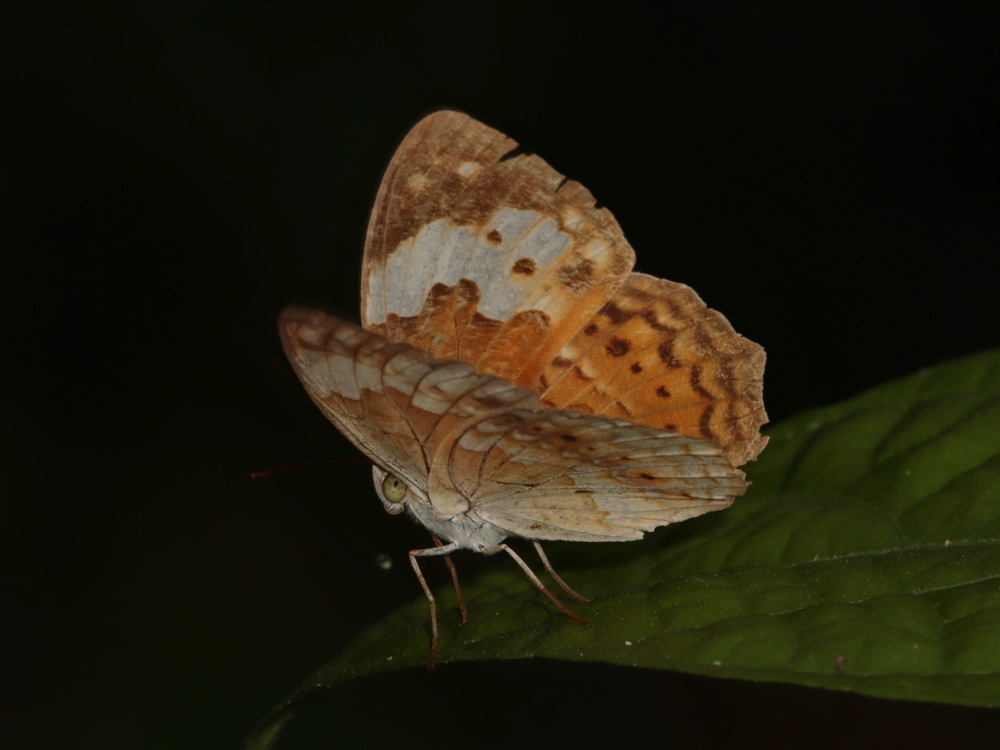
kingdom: Animalia
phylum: Arthropoda
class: Insecta
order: Lepidoptera
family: Nymphalidae
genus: Cupha
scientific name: Cupha erymanthis
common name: Rustic
